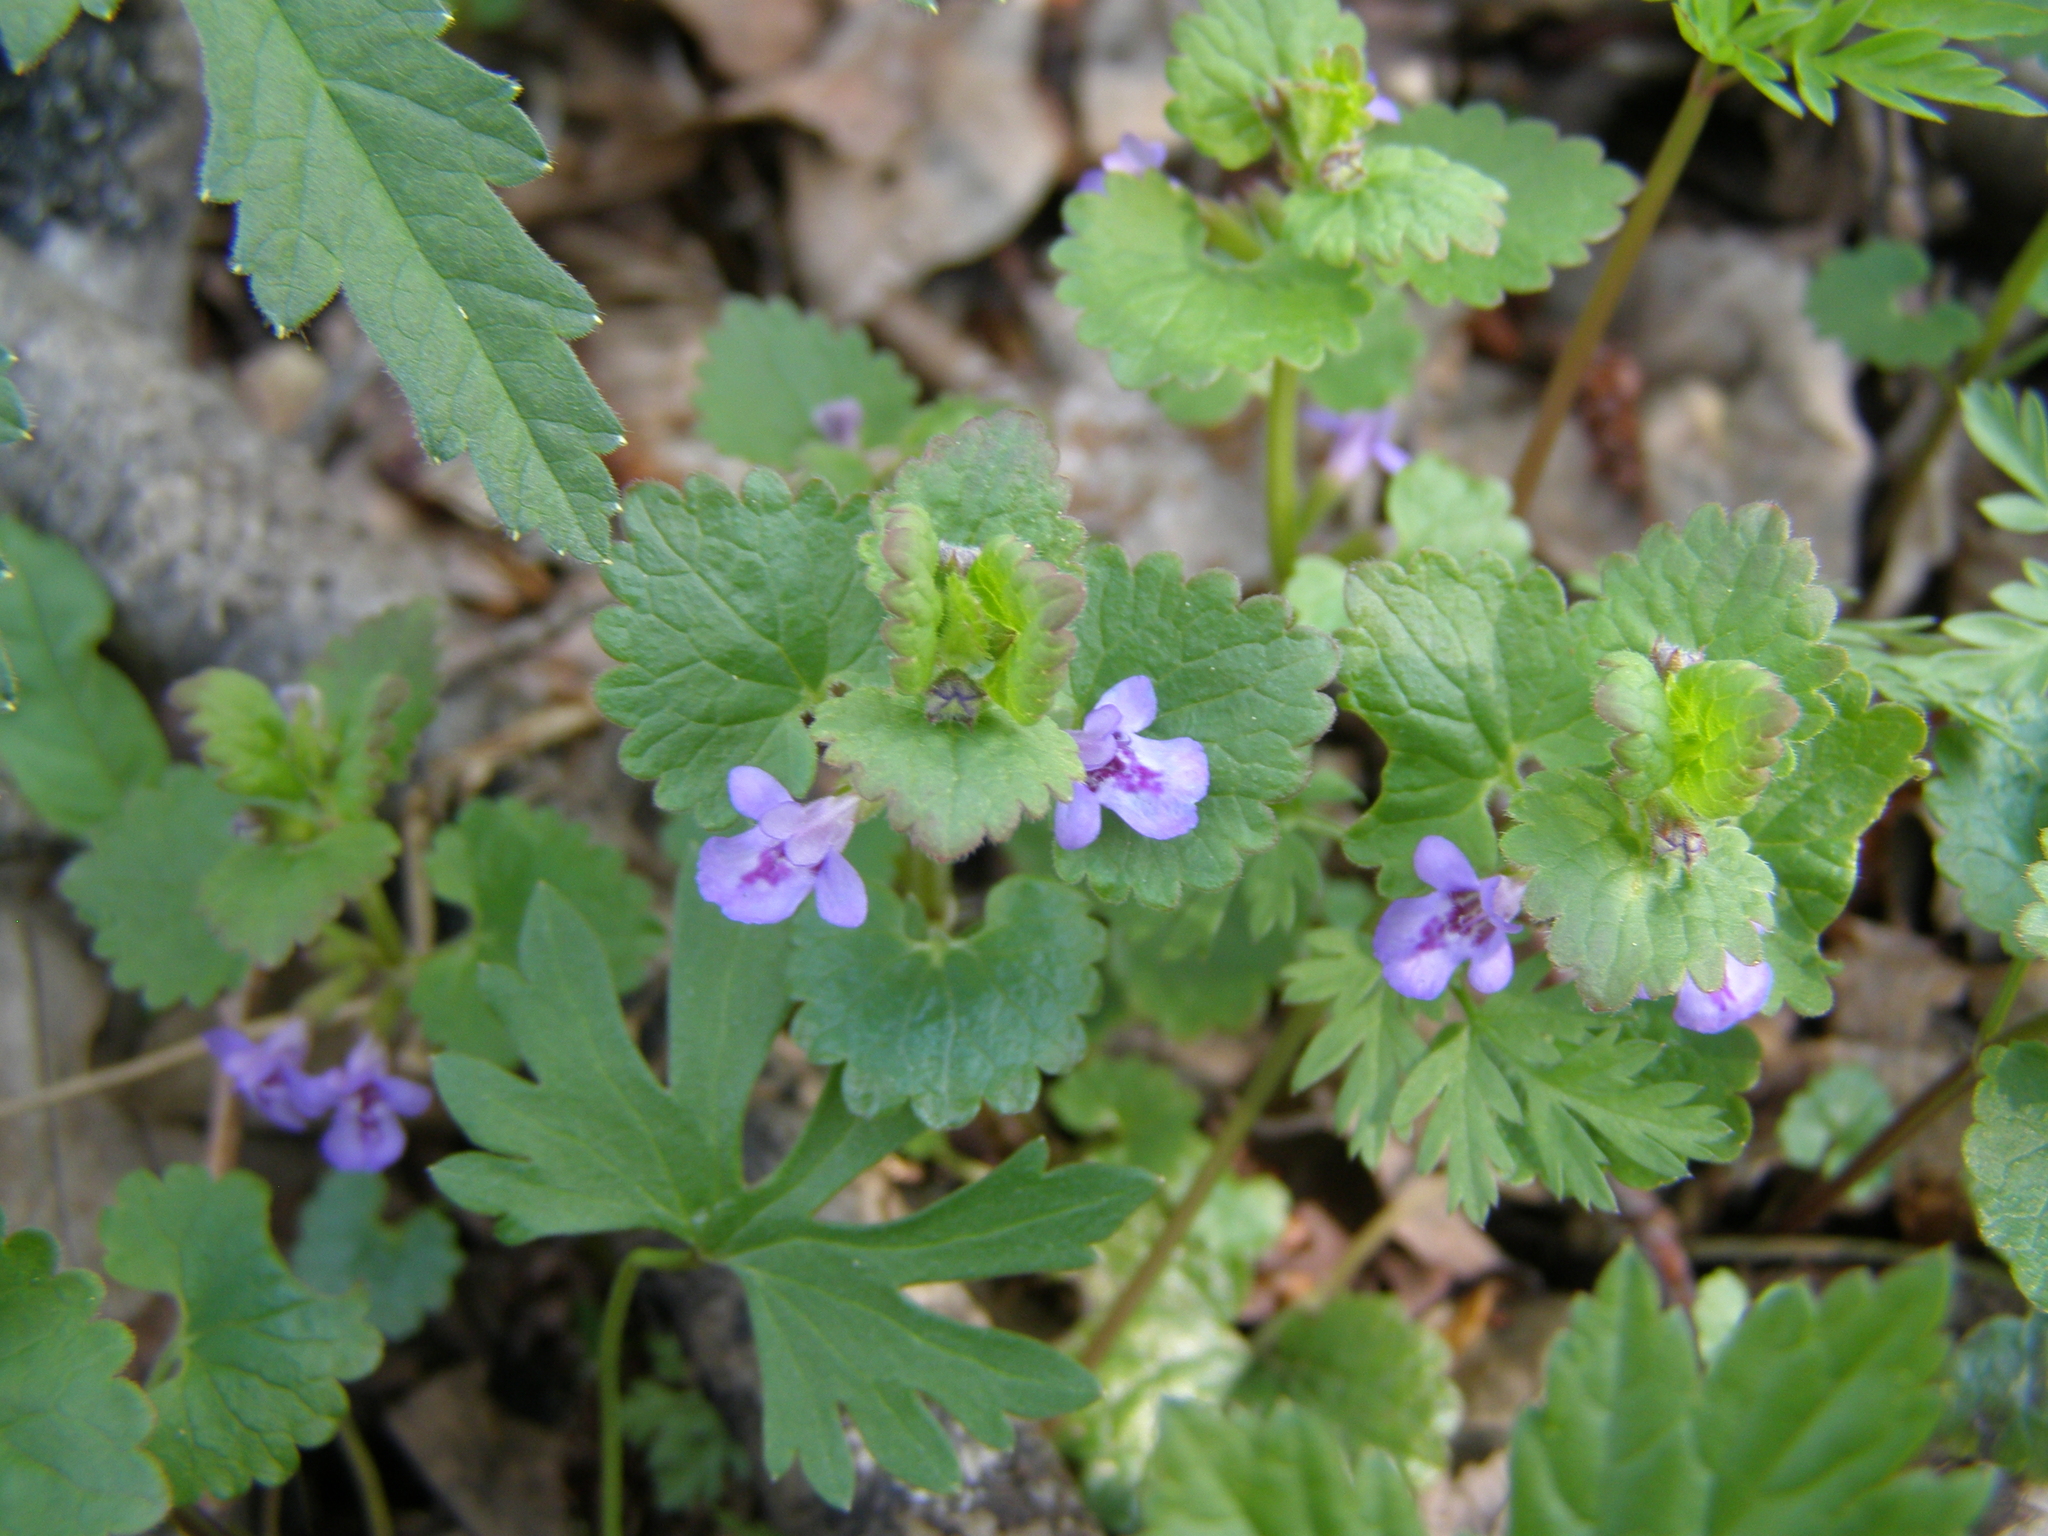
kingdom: Plantae
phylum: Tracheophyta
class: Magnoliopsida
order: Lamiales
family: Lamiaceae
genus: Glechoma
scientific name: Glechoma hederacea
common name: Ground ivy
